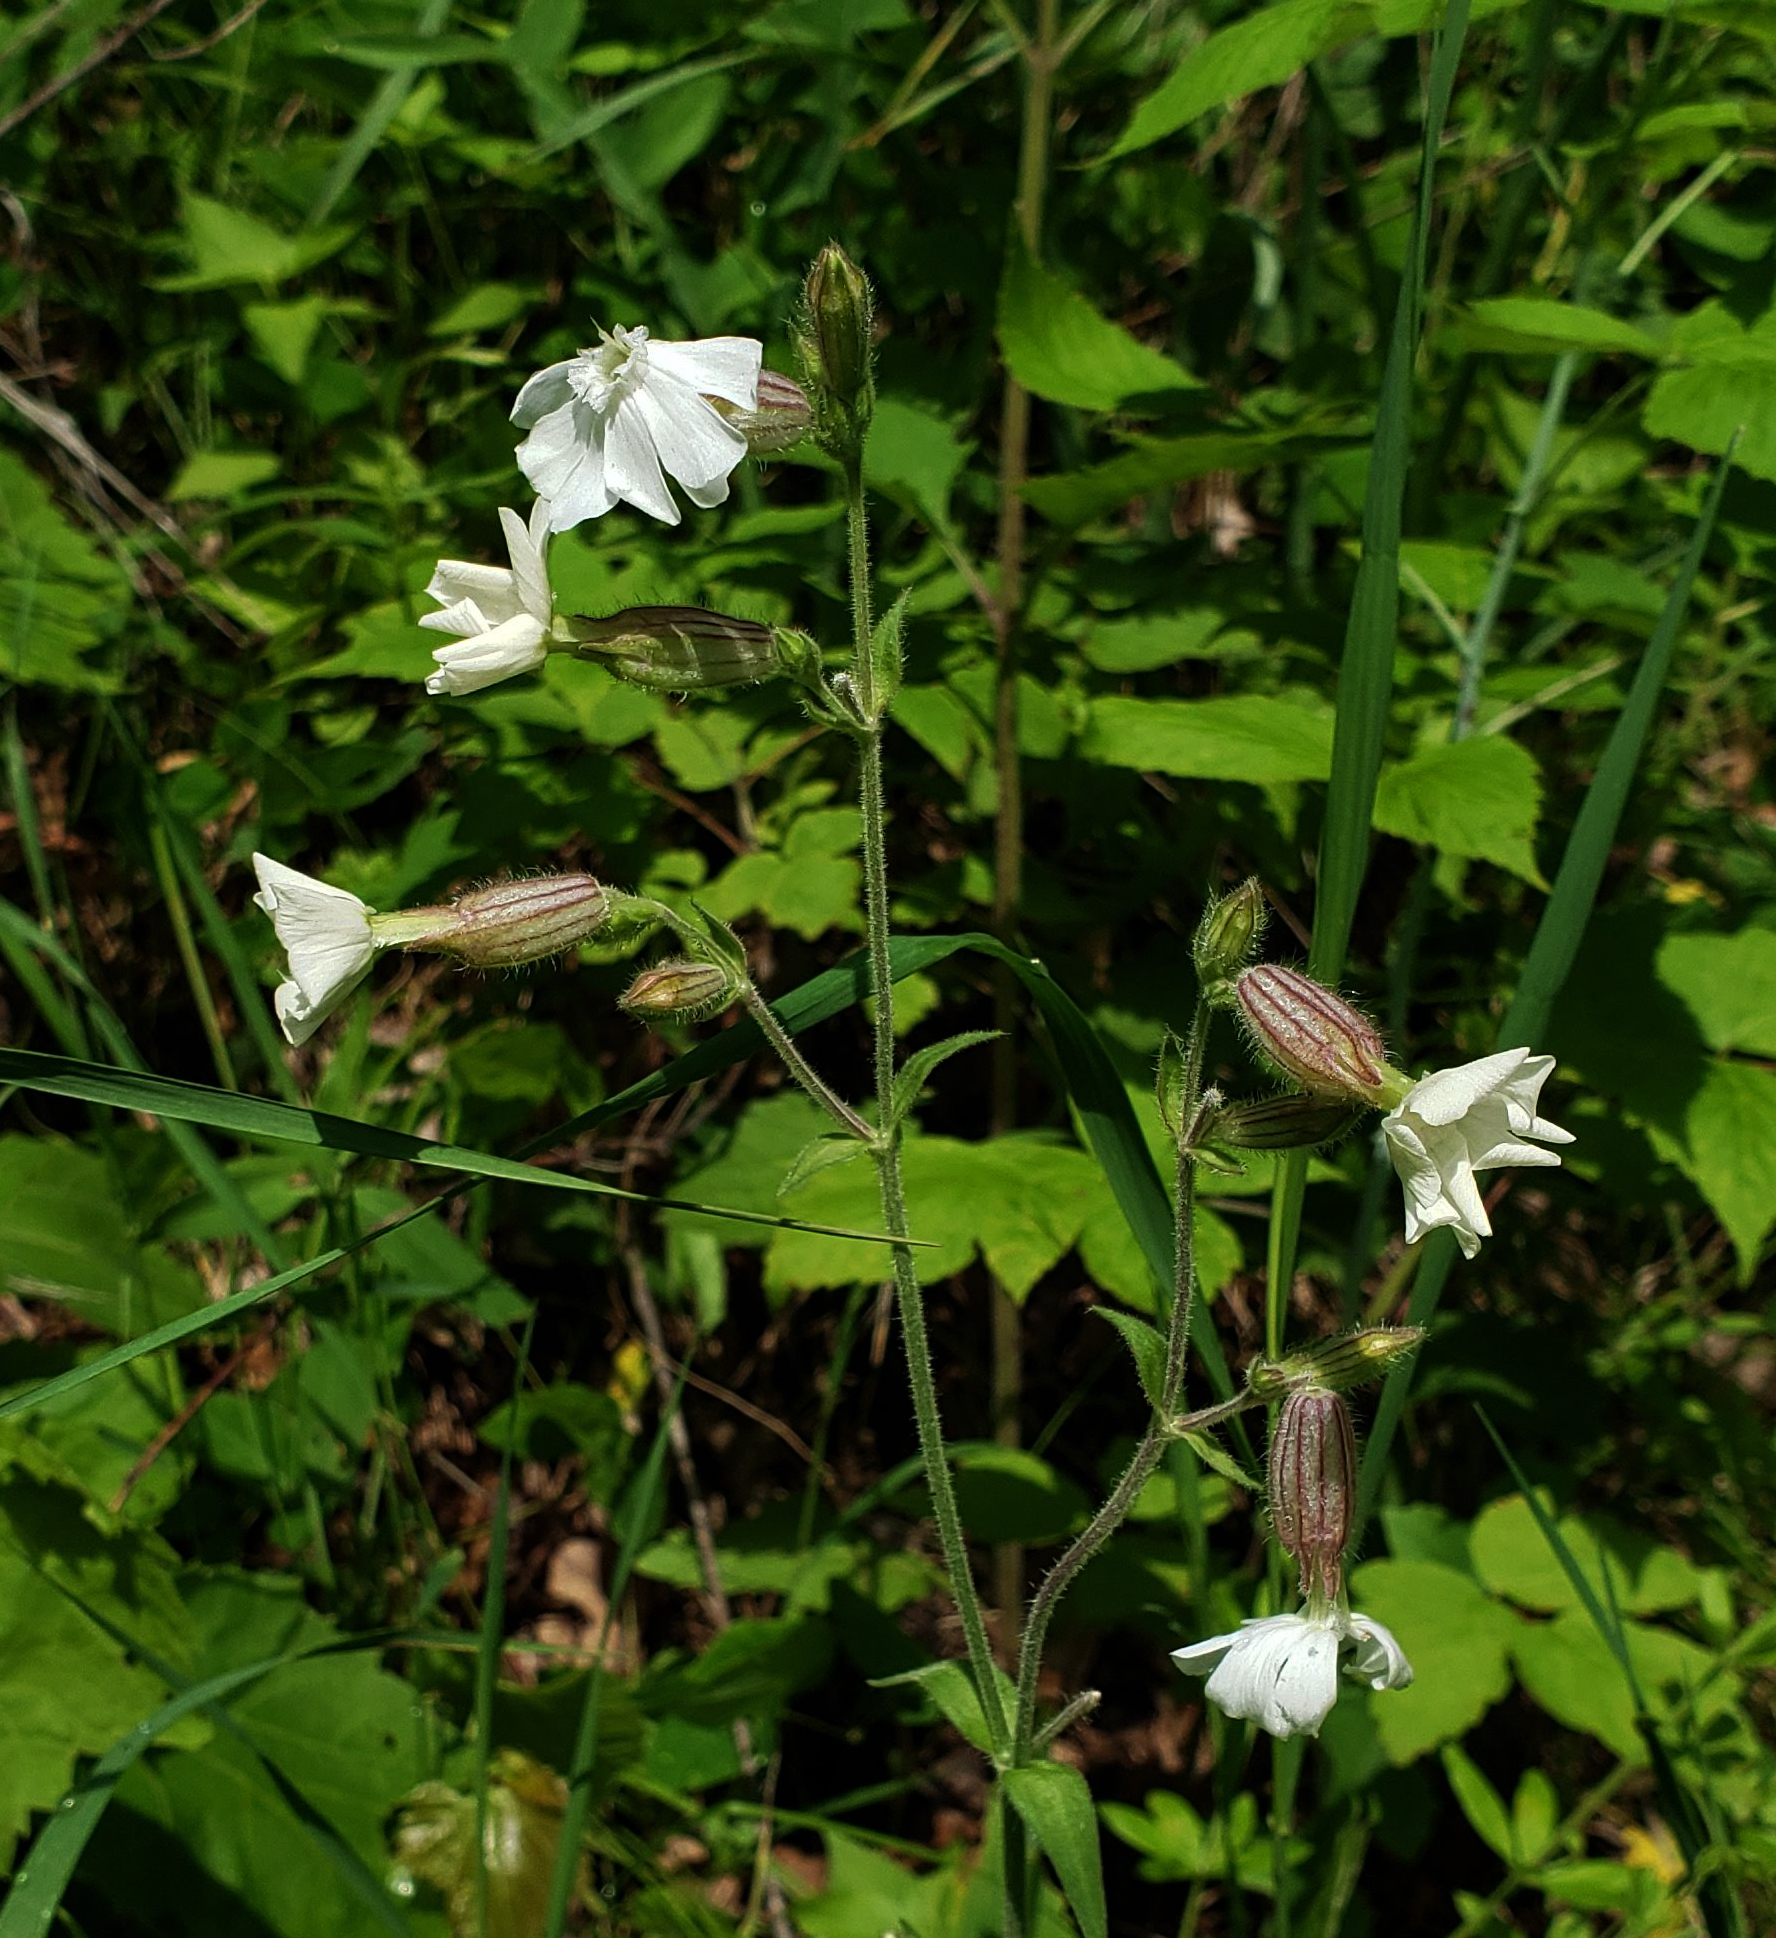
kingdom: Plantae
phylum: Tracheophyta
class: Magnoliopsida
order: Caryophyllales
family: Caryophyllaceae
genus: Silene
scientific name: Silene latifolia
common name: White campion
